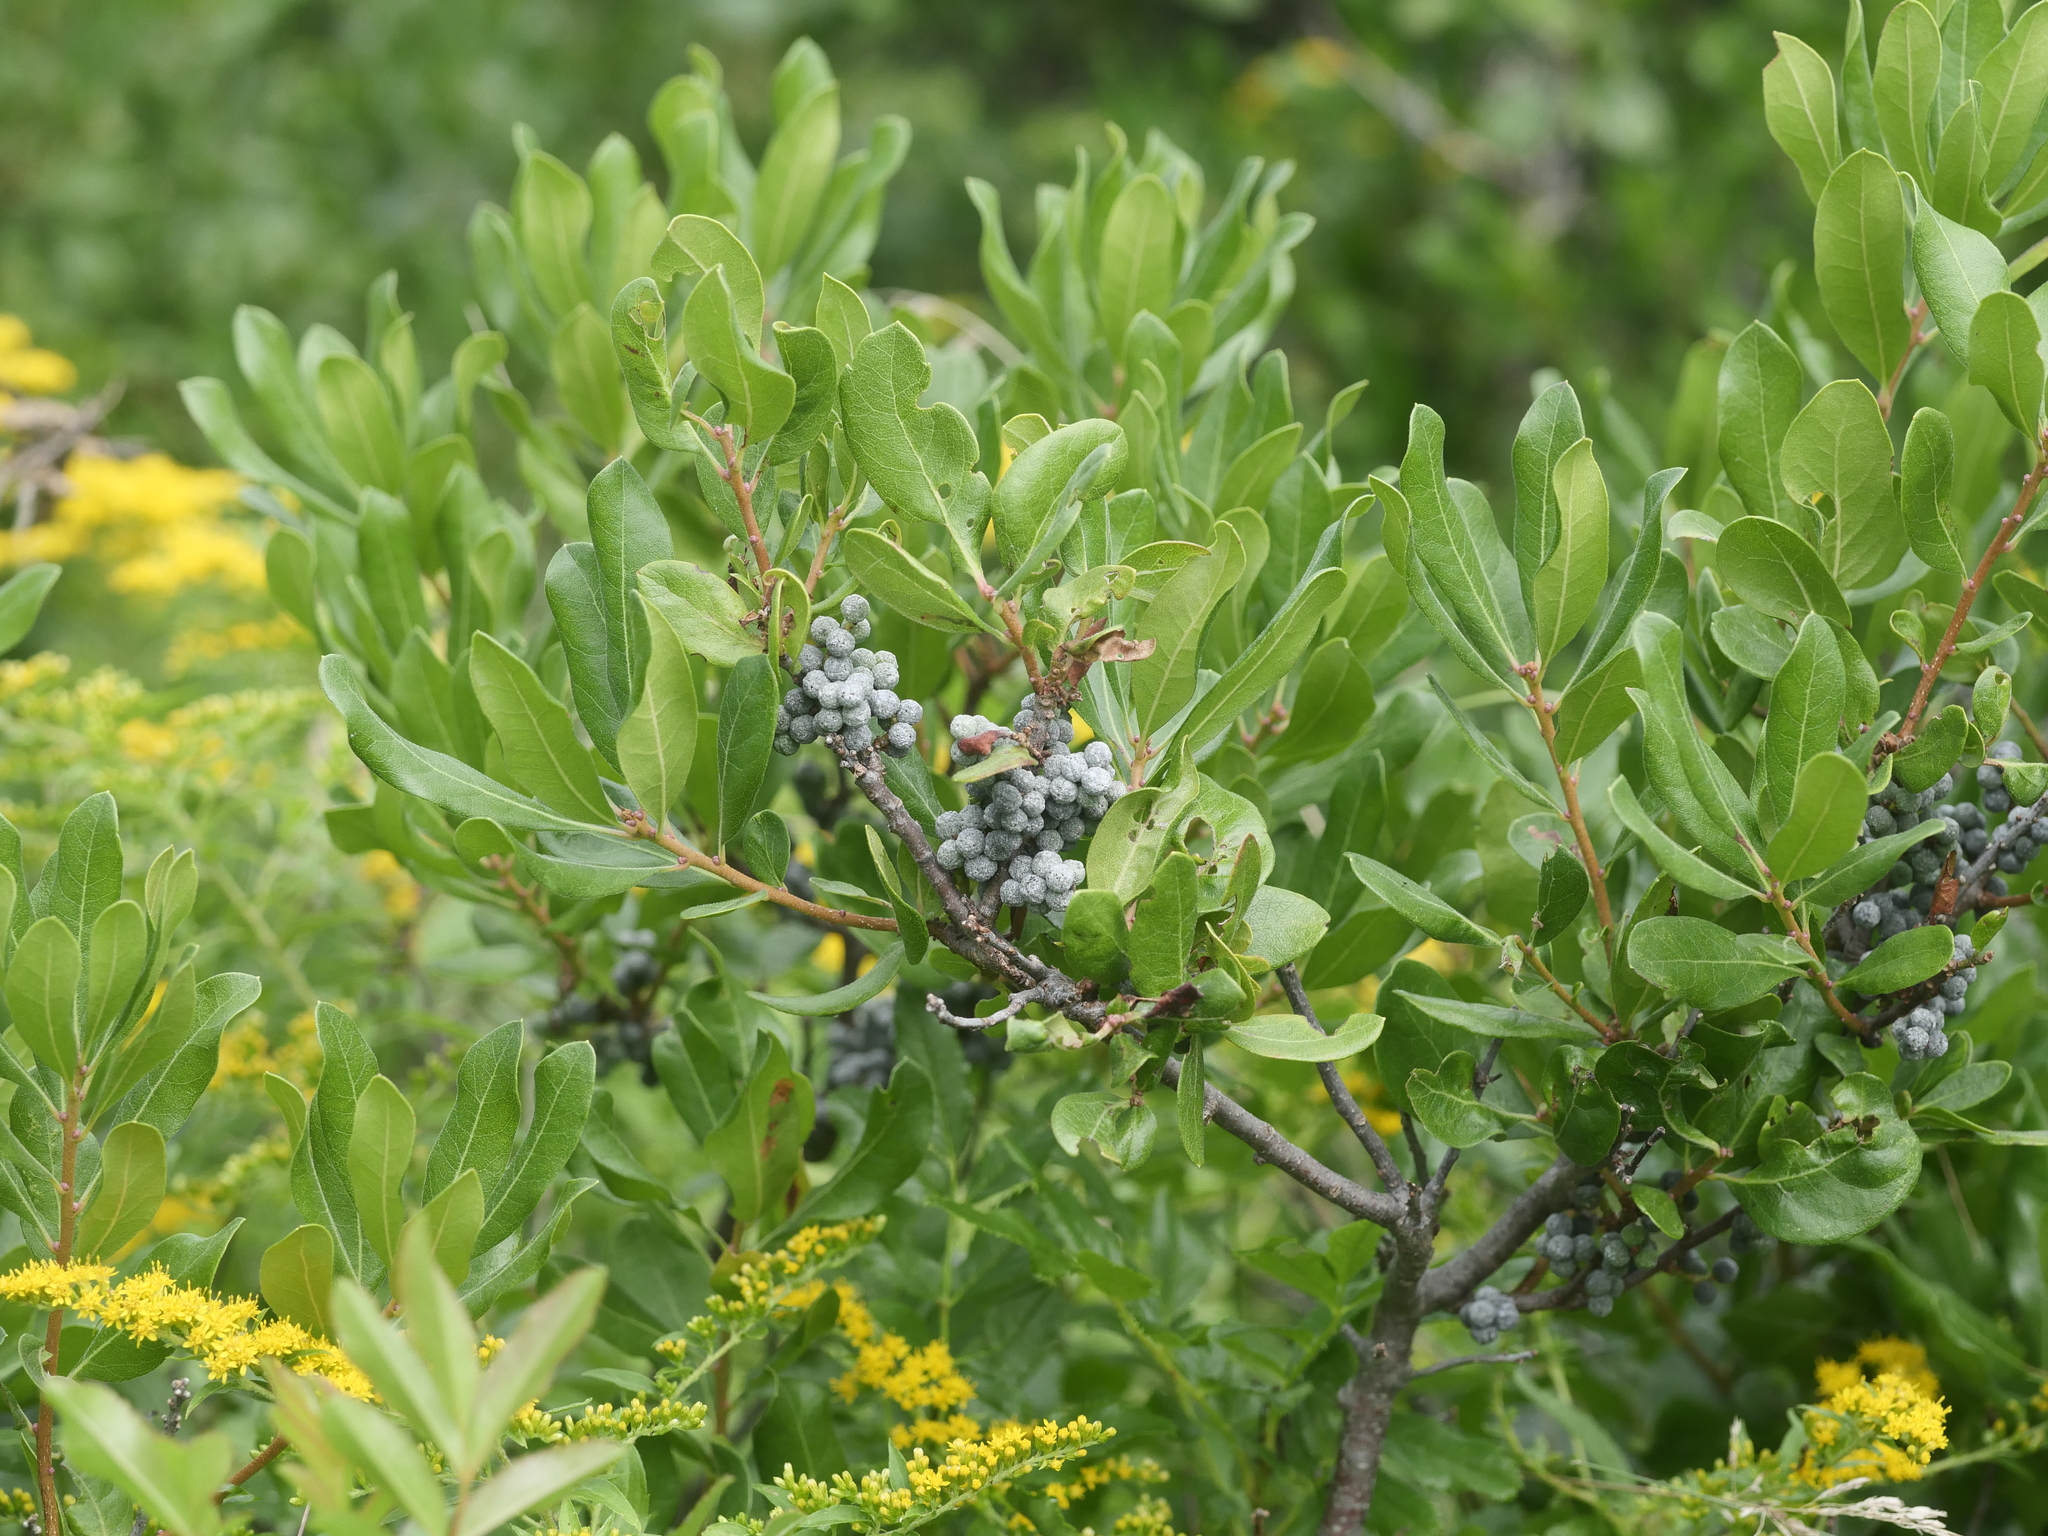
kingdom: Plantae
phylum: Tracheophyta
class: Magnoliopsida
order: Fagales
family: Myricaceae
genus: Morella
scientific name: Morella pensylvanica
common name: Northern bayberry
